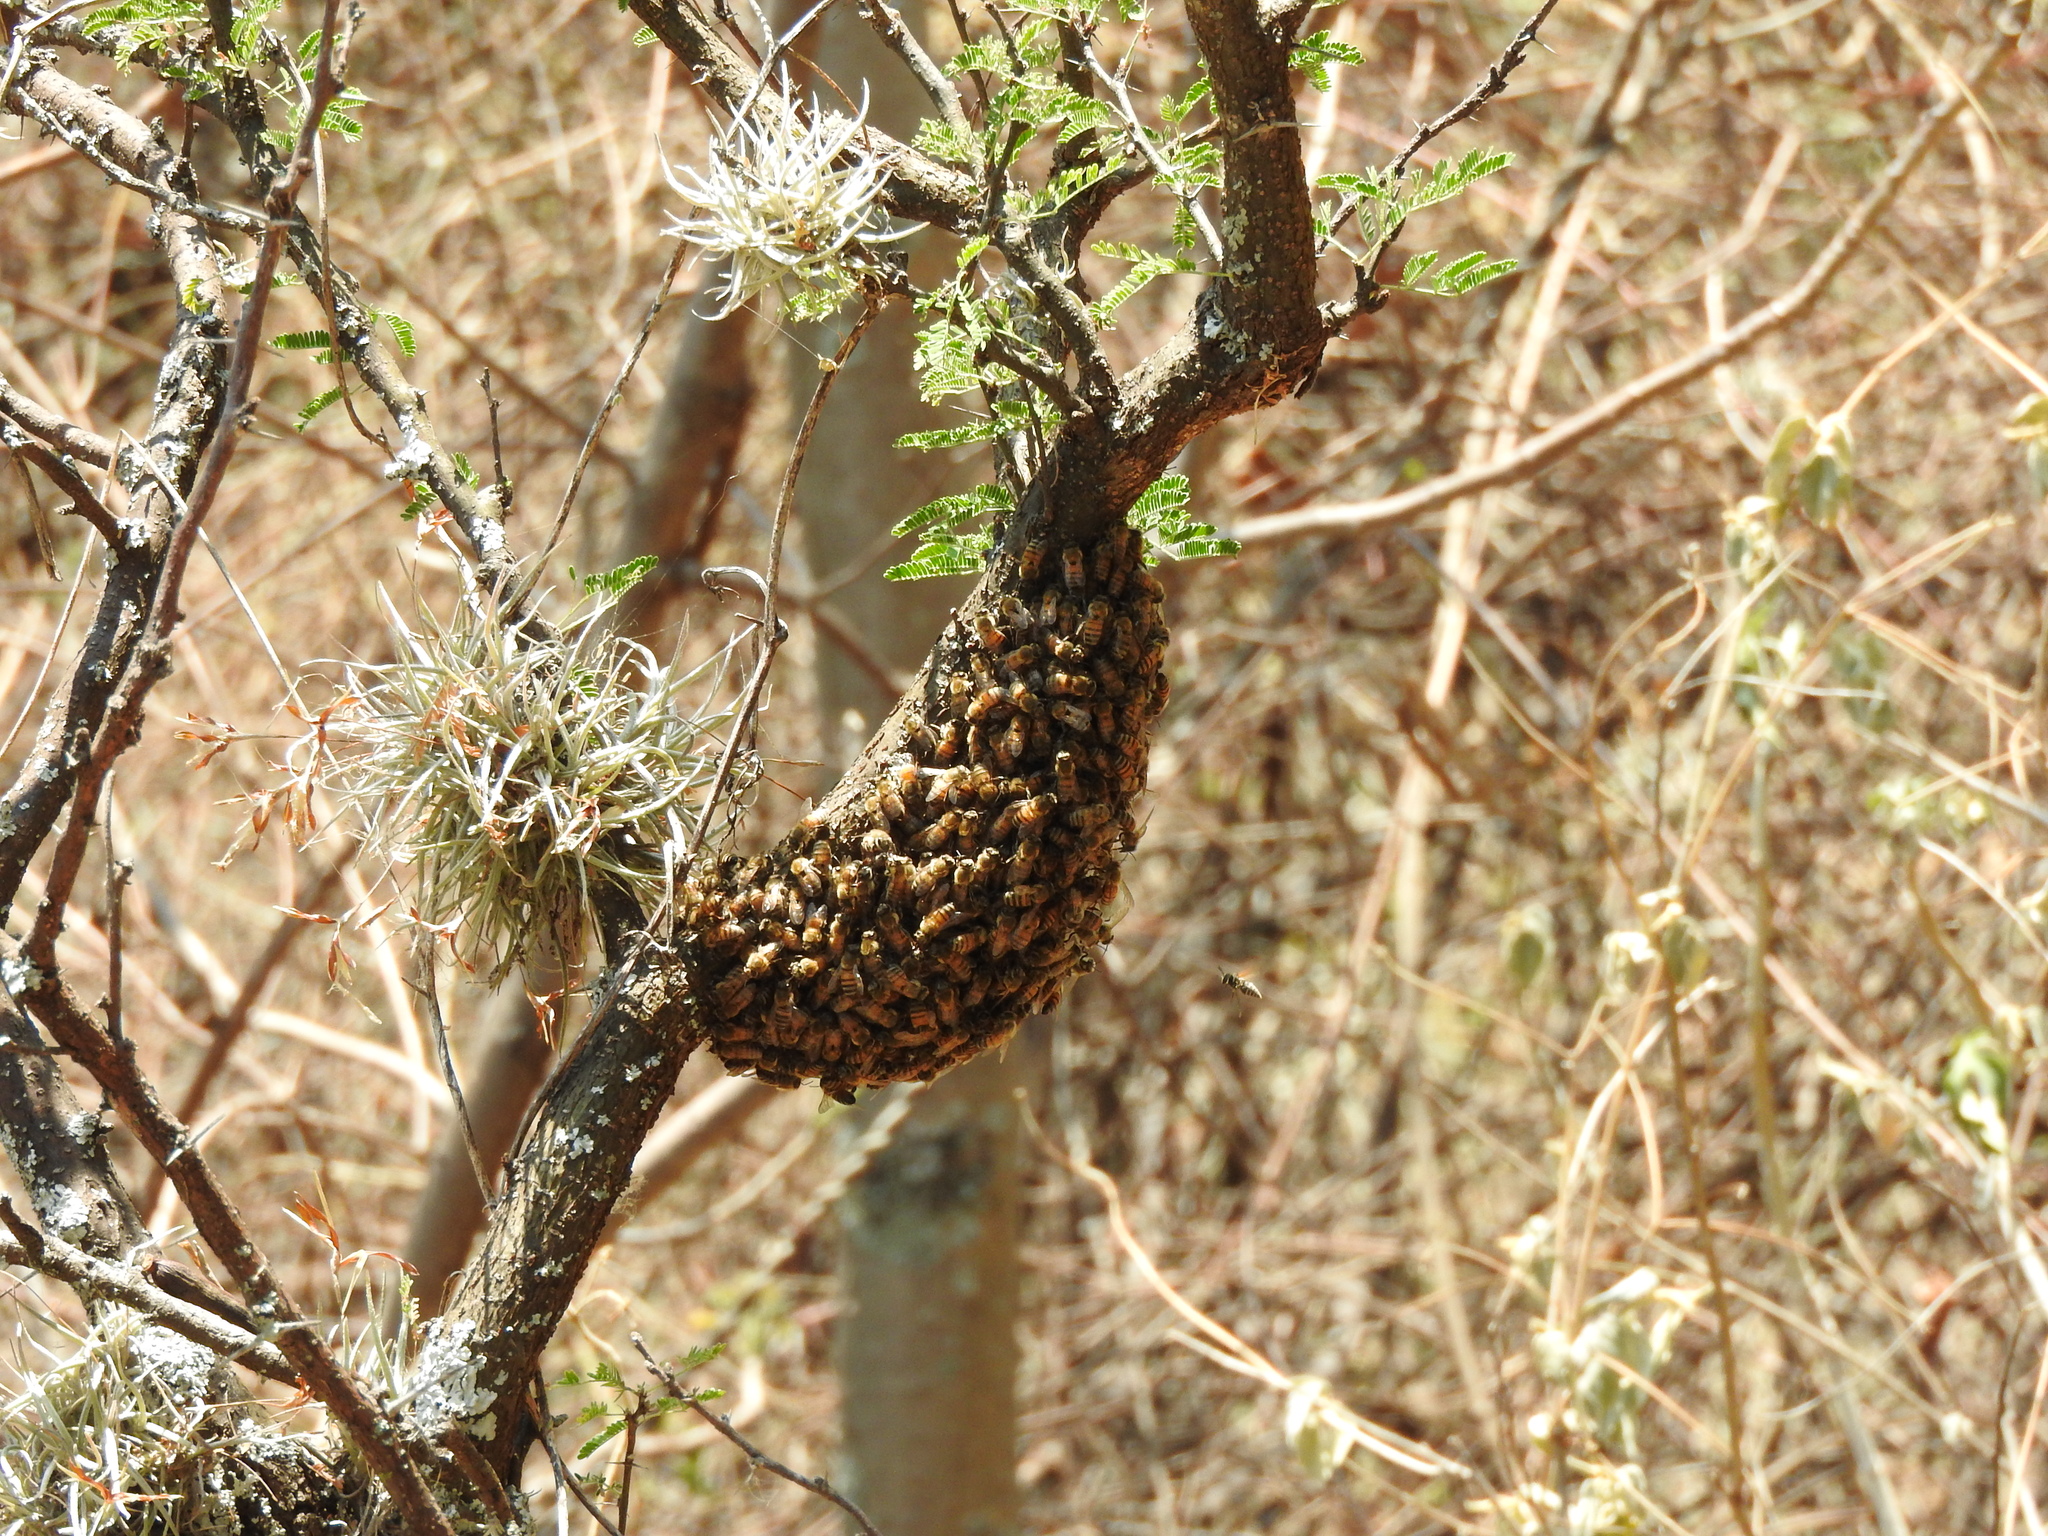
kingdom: Animalia
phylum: Arthropoda
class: Insecta
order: Hymenoptera
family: Apidae
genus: Apis
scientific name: Apis mellifera
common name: Honey bee
